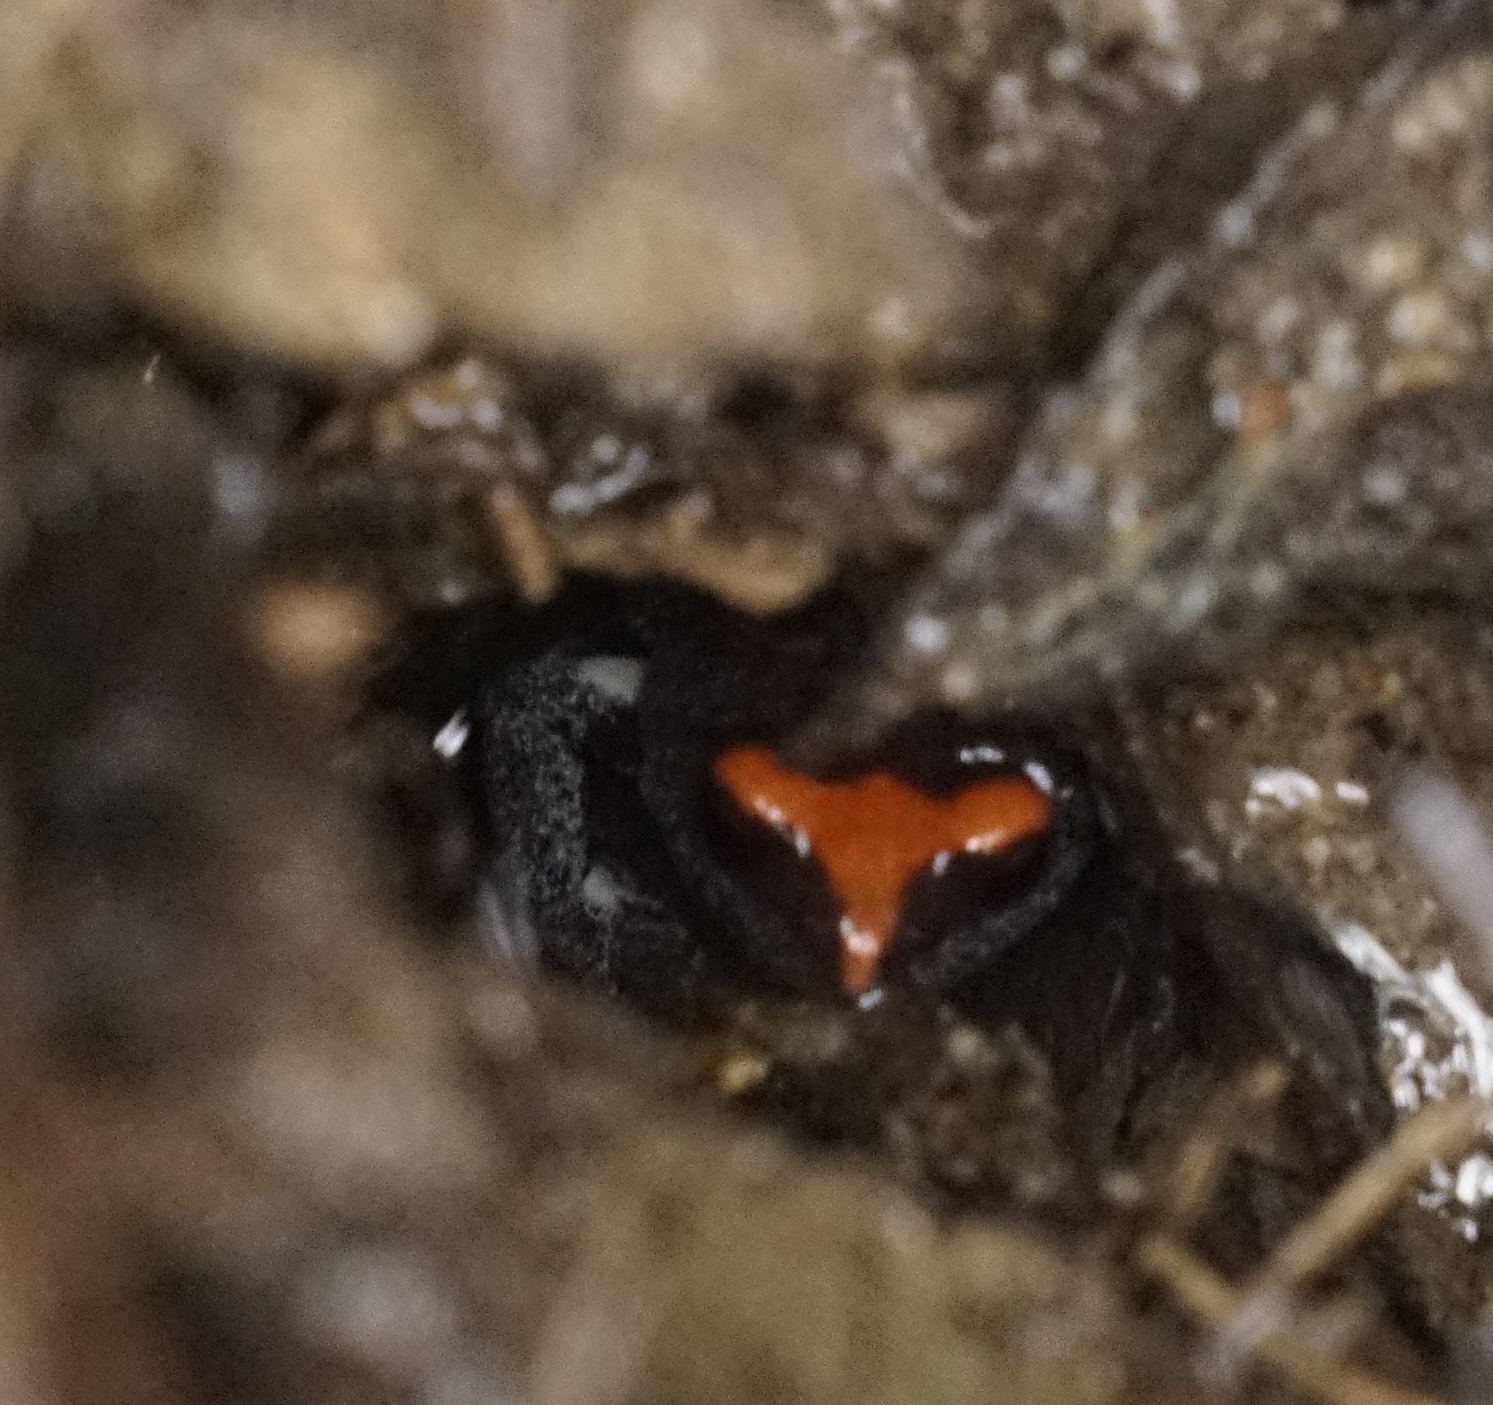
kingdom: Animalia
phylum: Chordata
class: Amphibia
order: Anura
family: Myobatrachidae
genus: Pseudophryne
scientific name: Pseudophryne australis
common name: Red-crowned toadlet
